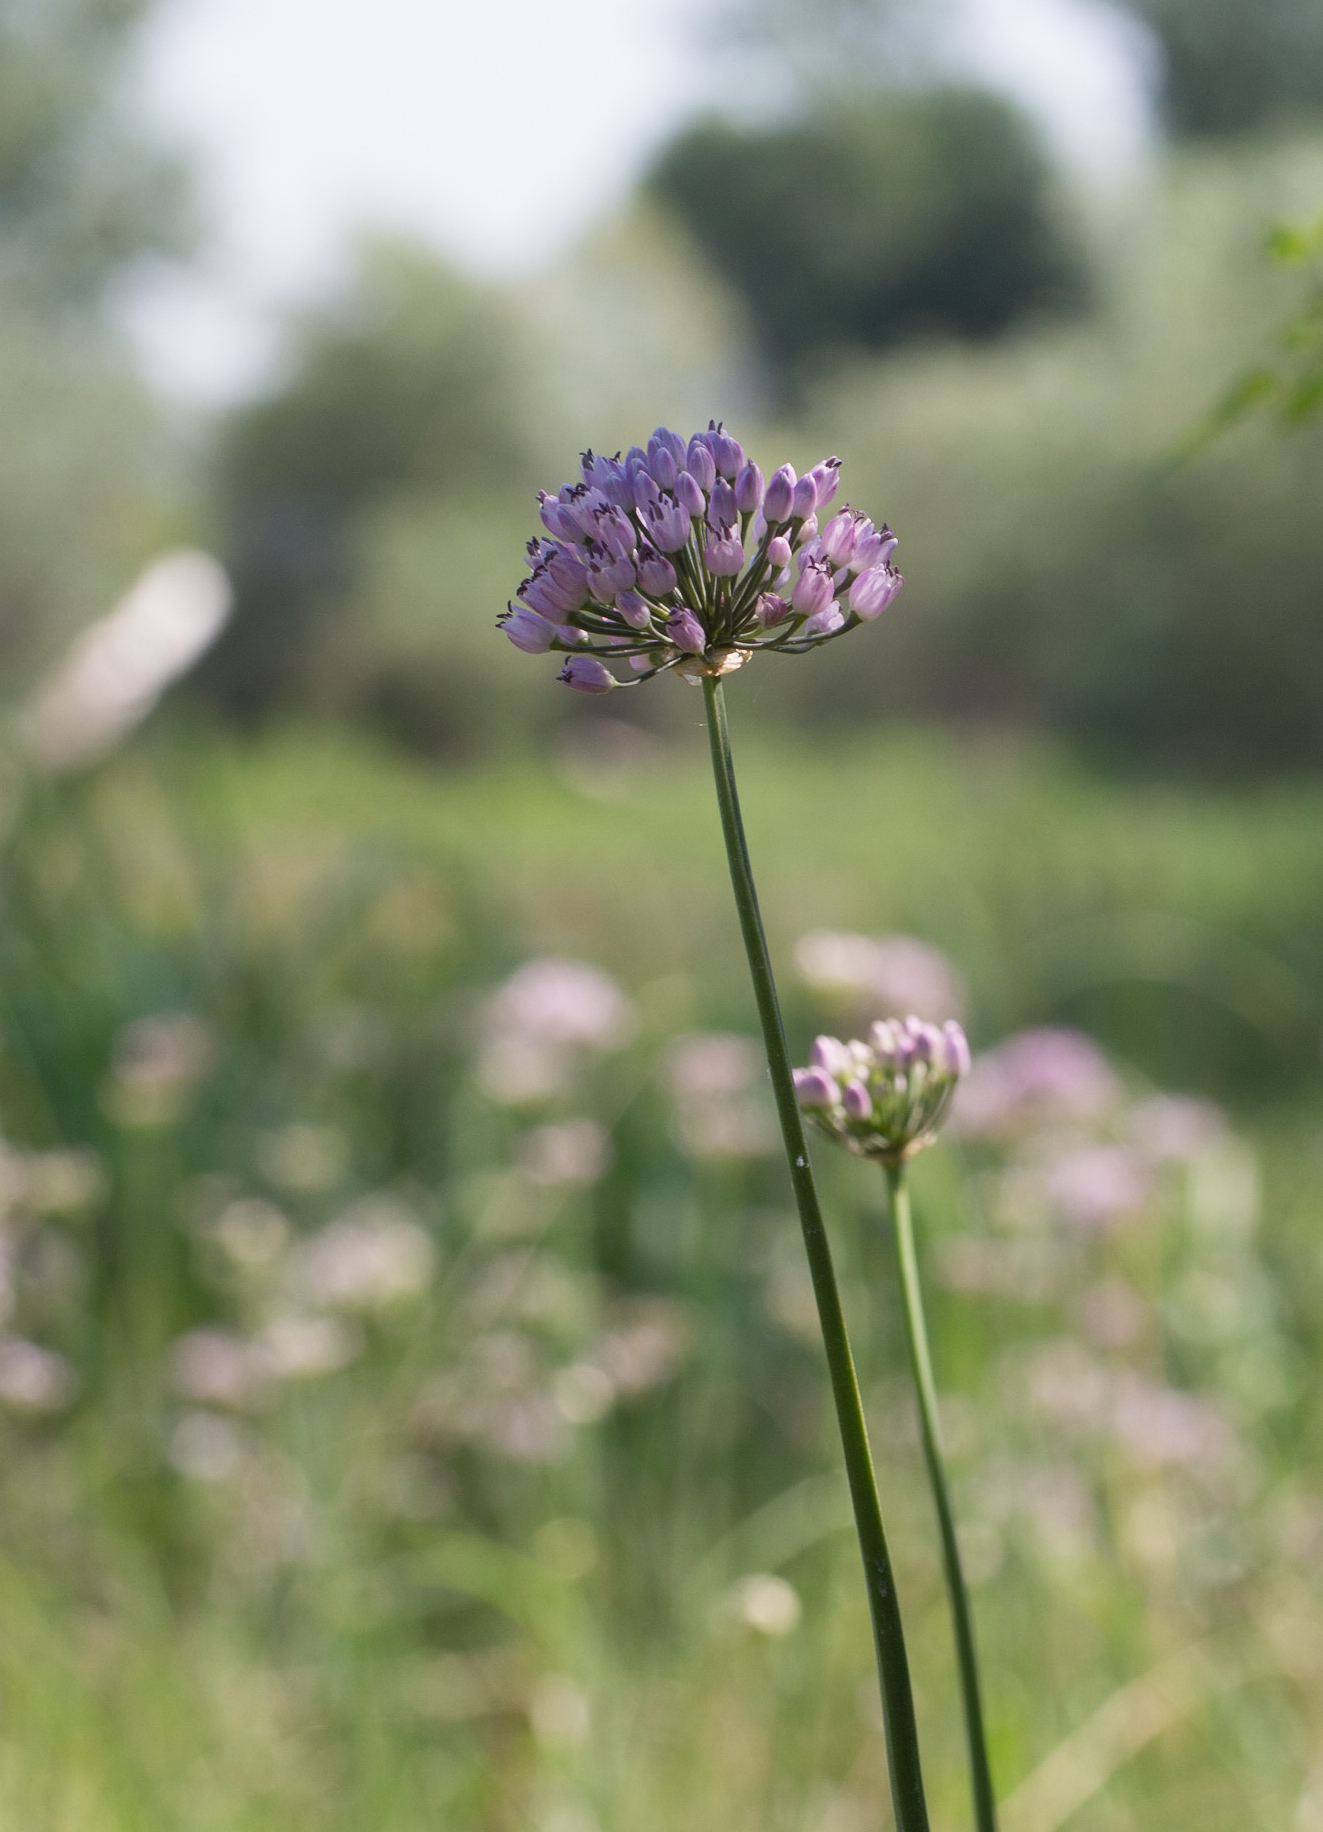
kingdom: Plantae
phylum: Tracheophyta
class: Liliopsida
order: Asparagales
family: Amaryllidaceae
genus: Allium
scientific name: Allium angulosum
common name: Mouse garlic
